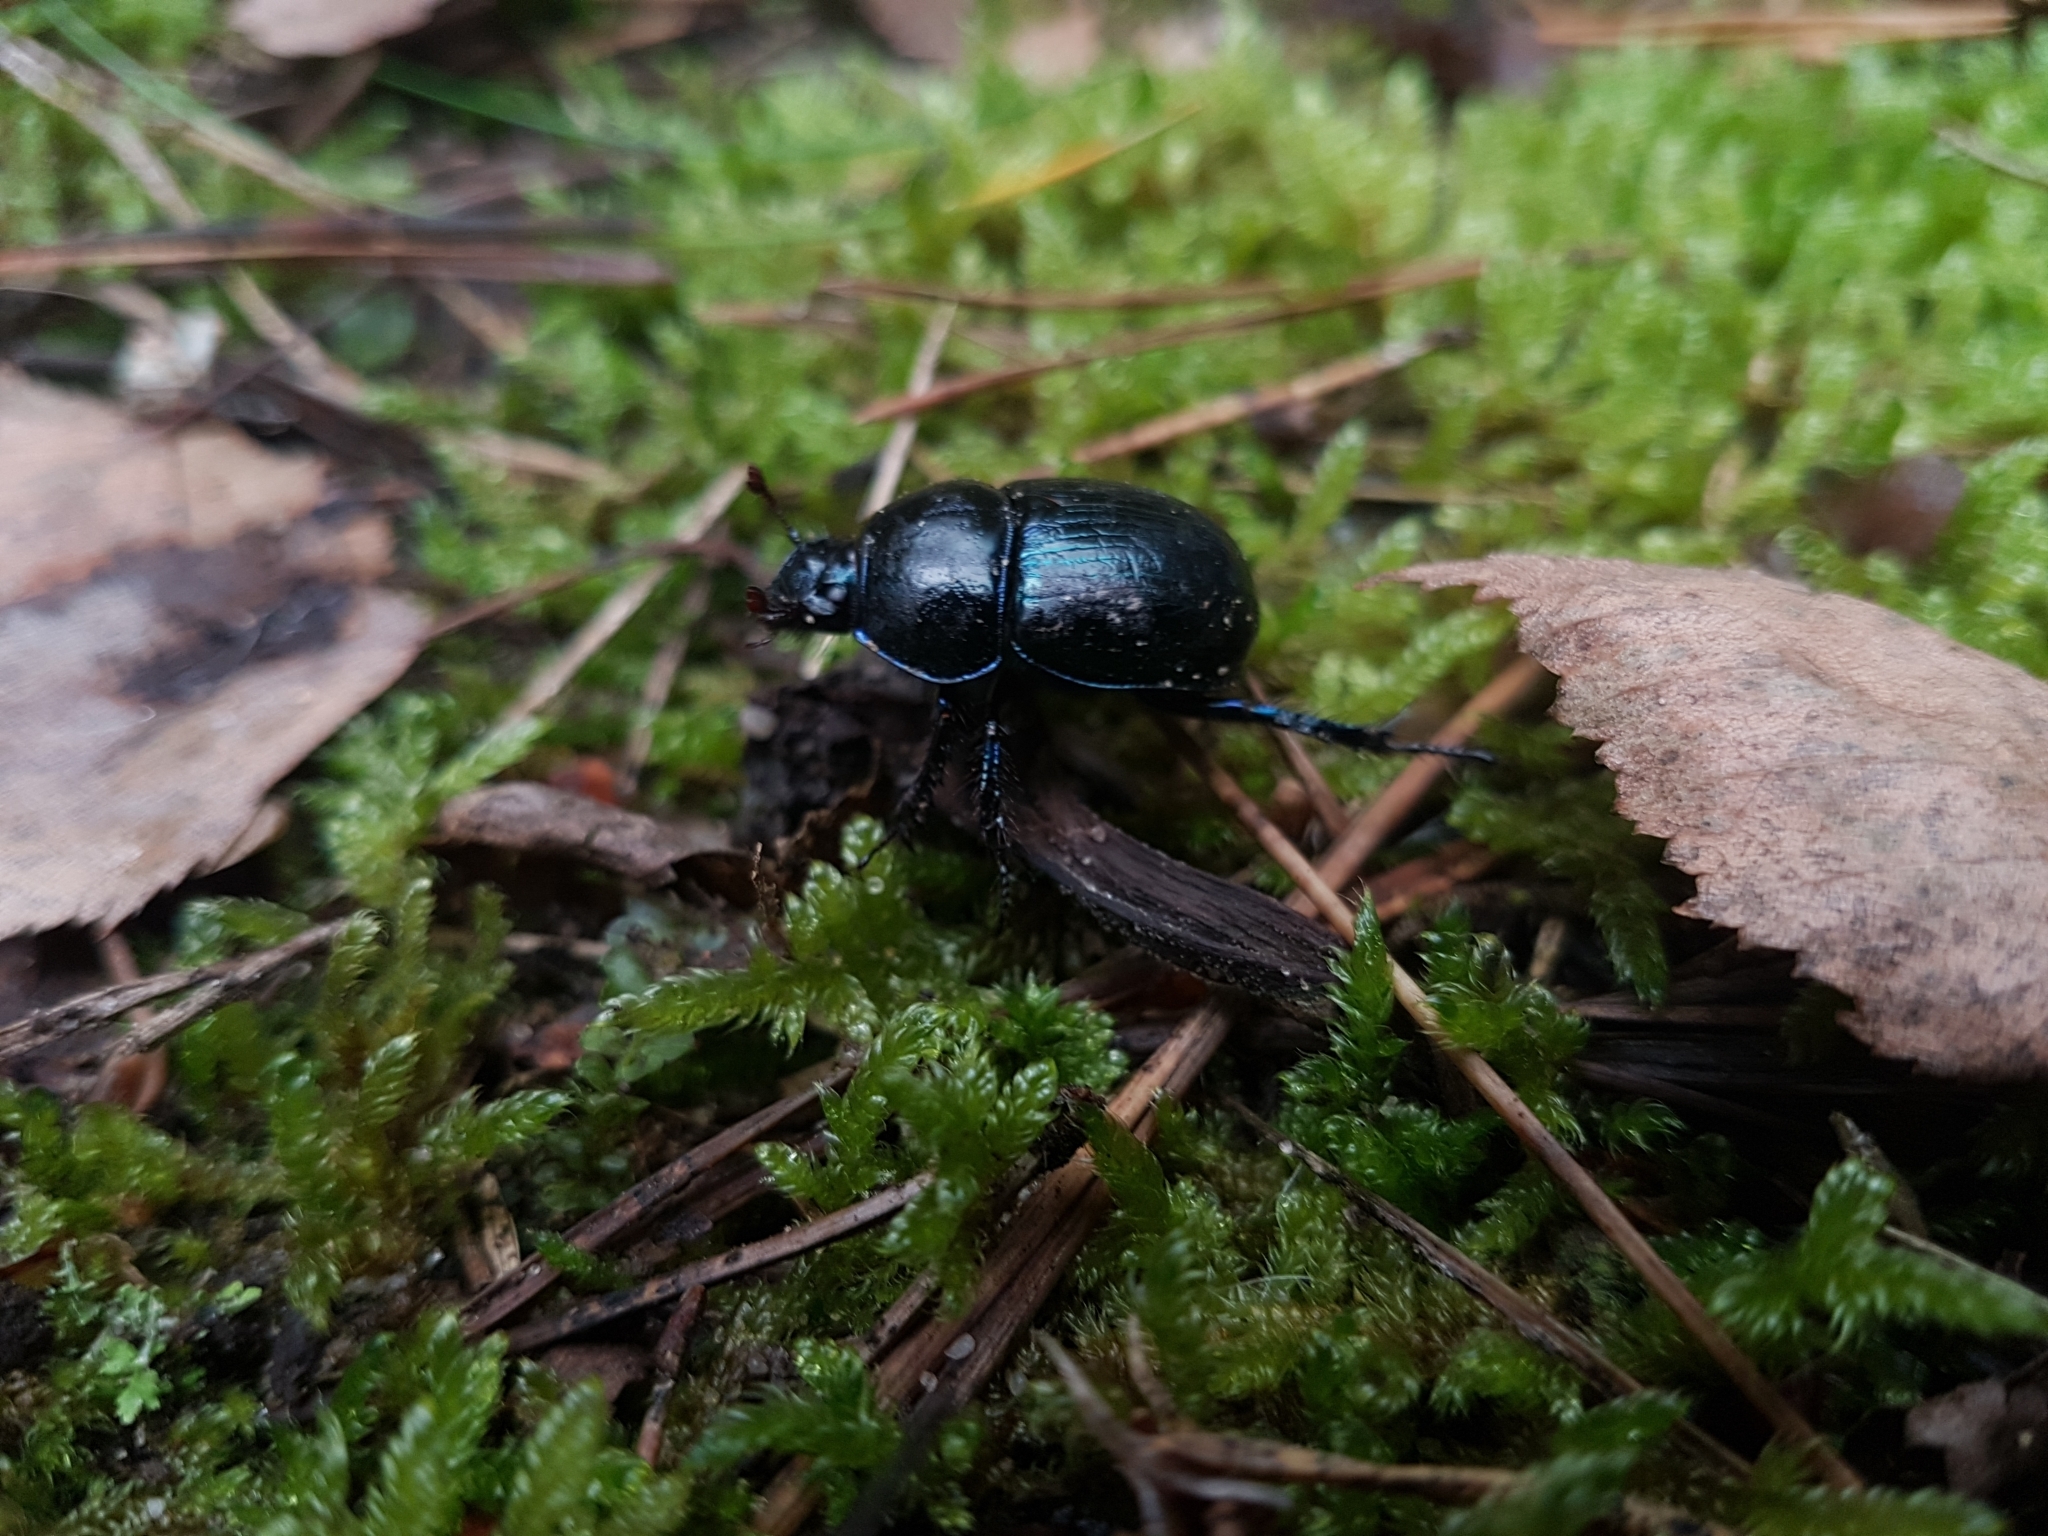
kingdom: Animalia
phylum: Arthropoda
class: Insecta
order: Coleoptera
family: Geotrupidae
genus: Anoplotrupes
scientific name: Anoplotrupes stercorosus
